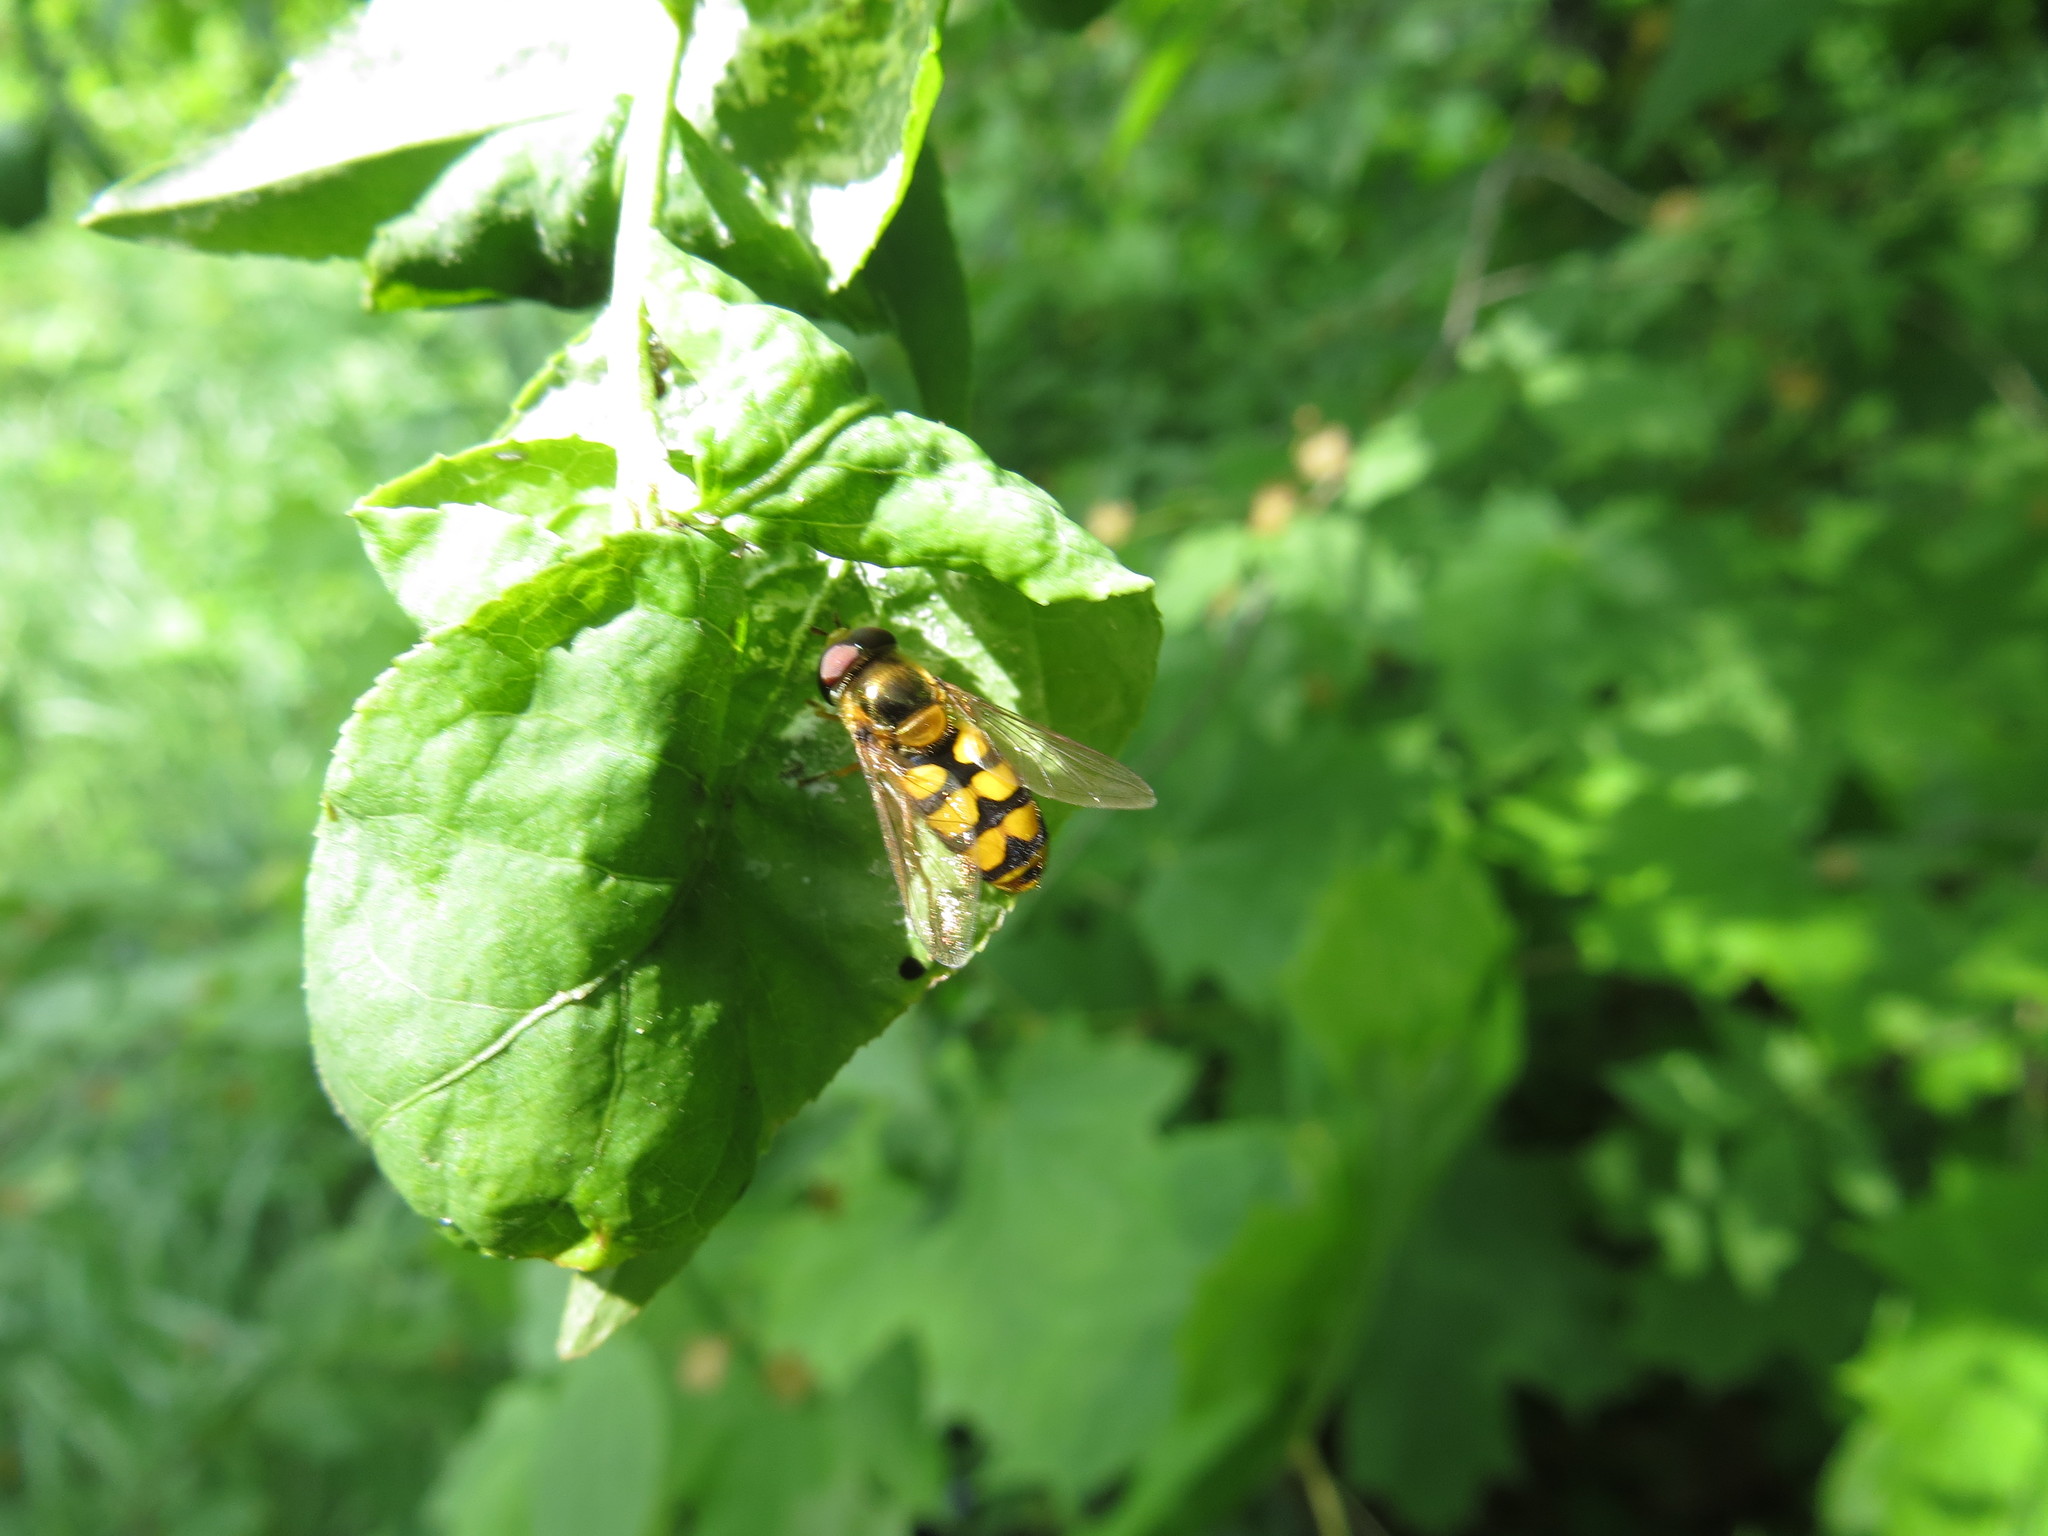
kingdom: Animalia
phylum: Arthropoda
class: Insecta
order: Diptera
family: Syrphidae
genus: Eupeodes
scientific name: Eupeodes latifasciatus
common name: Variable aphideater
